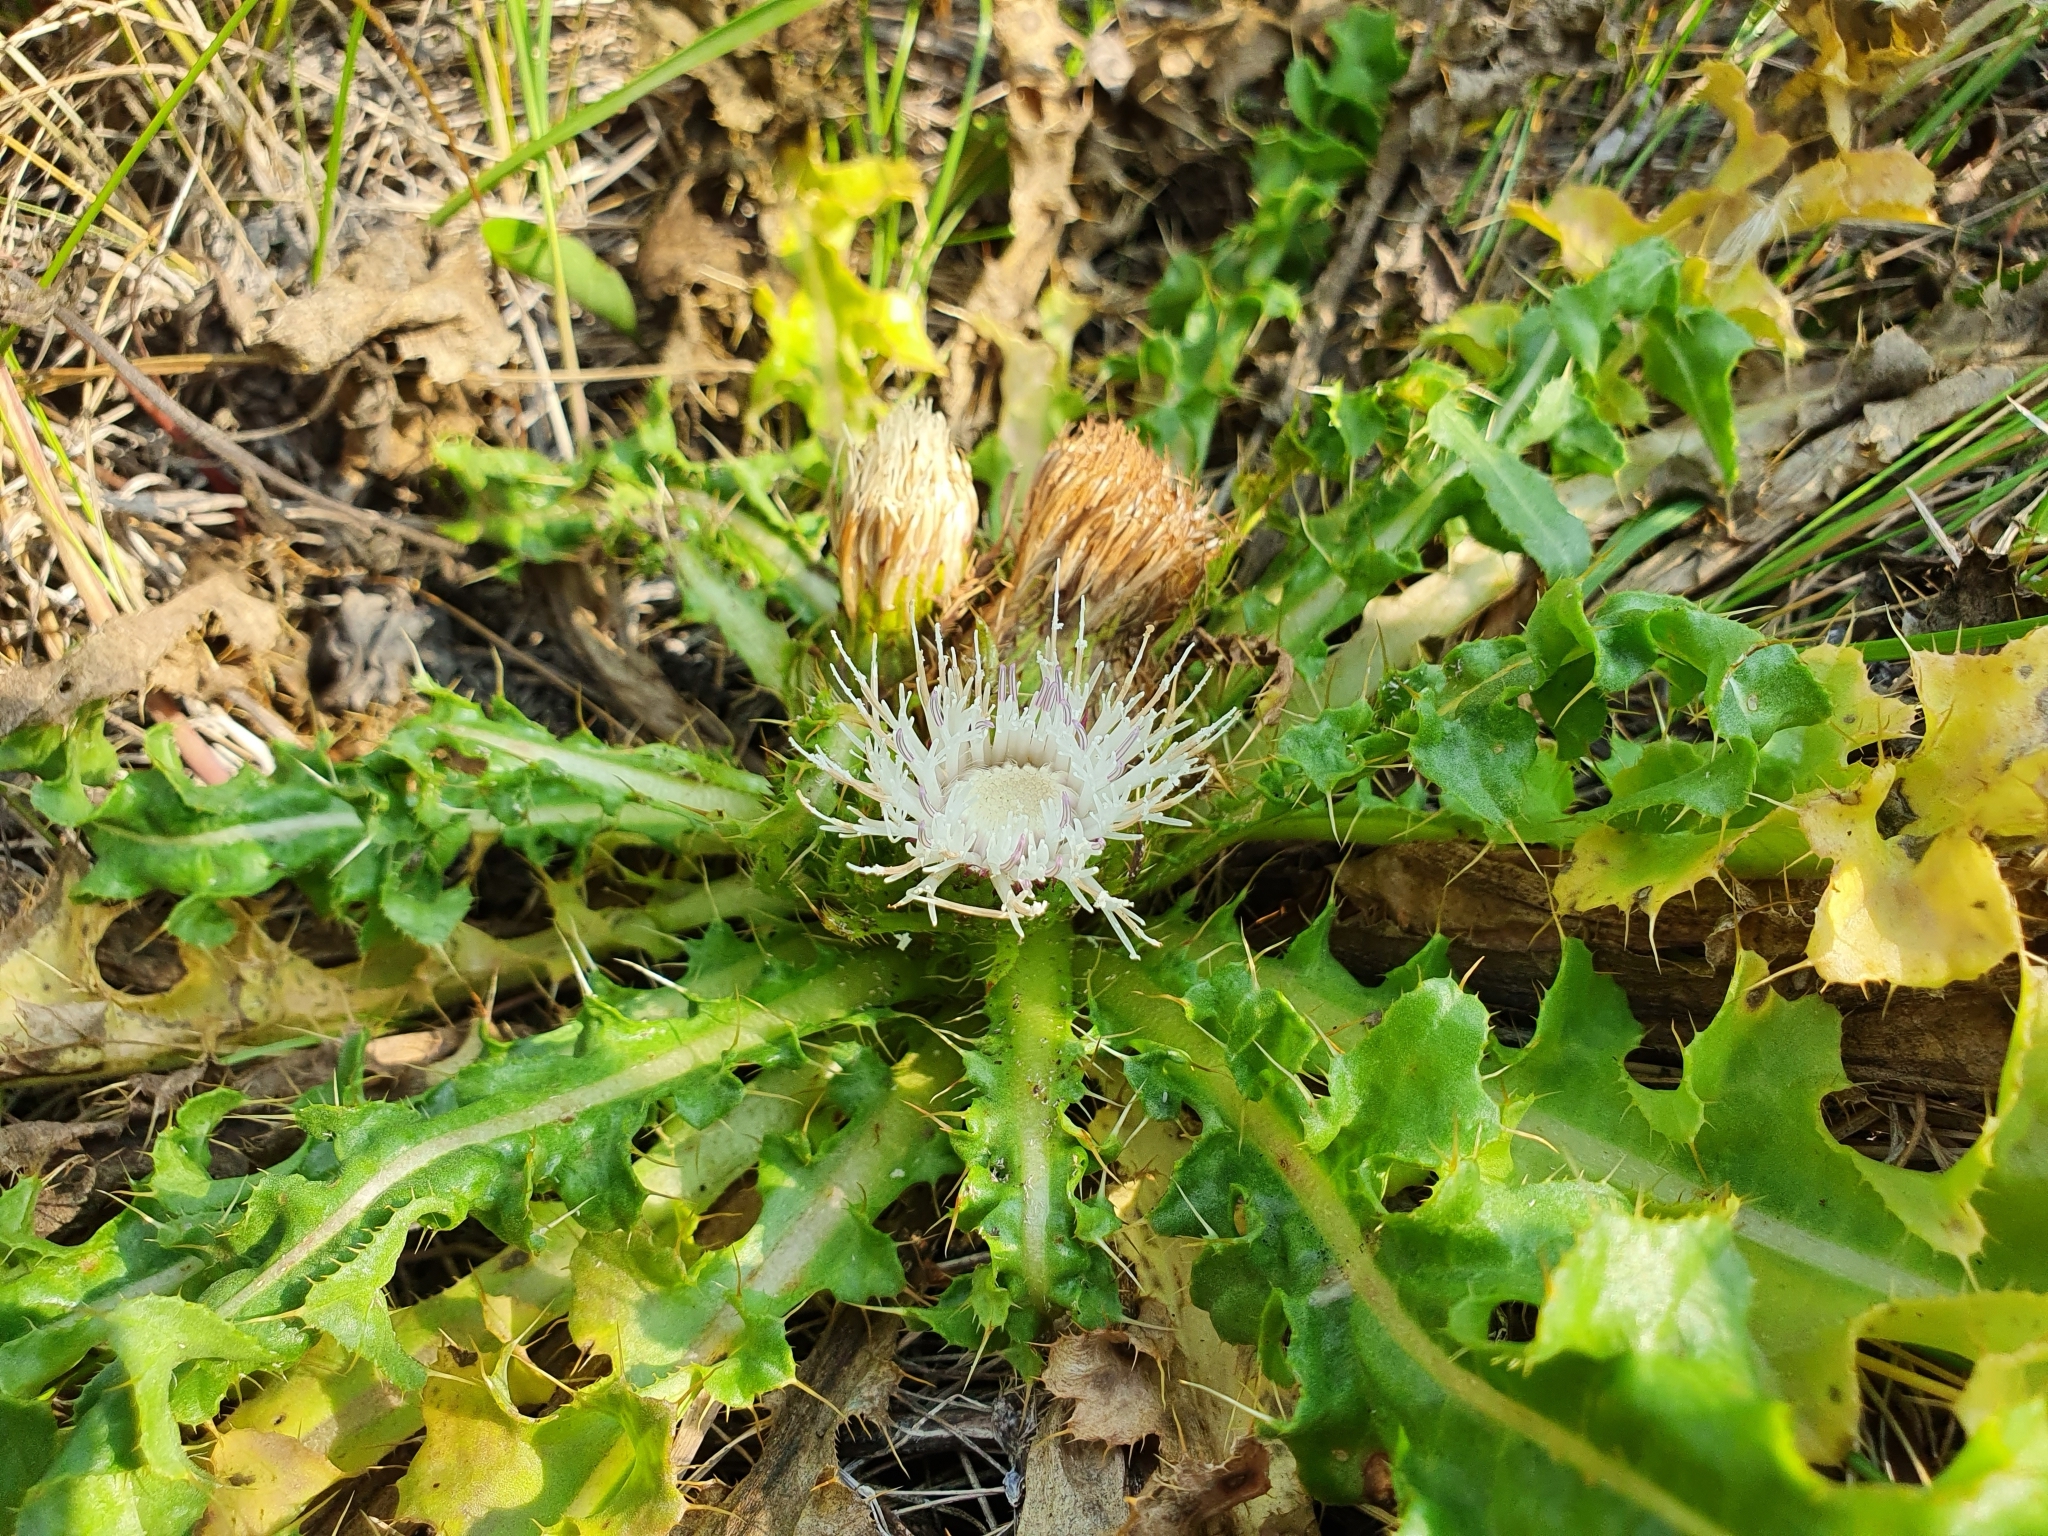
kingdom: Plantae
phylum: Tracheophyta
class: Magnoliopsida
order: Asterales
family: Asteraceae
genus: Cirsium
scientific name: Cirsium esculentum
